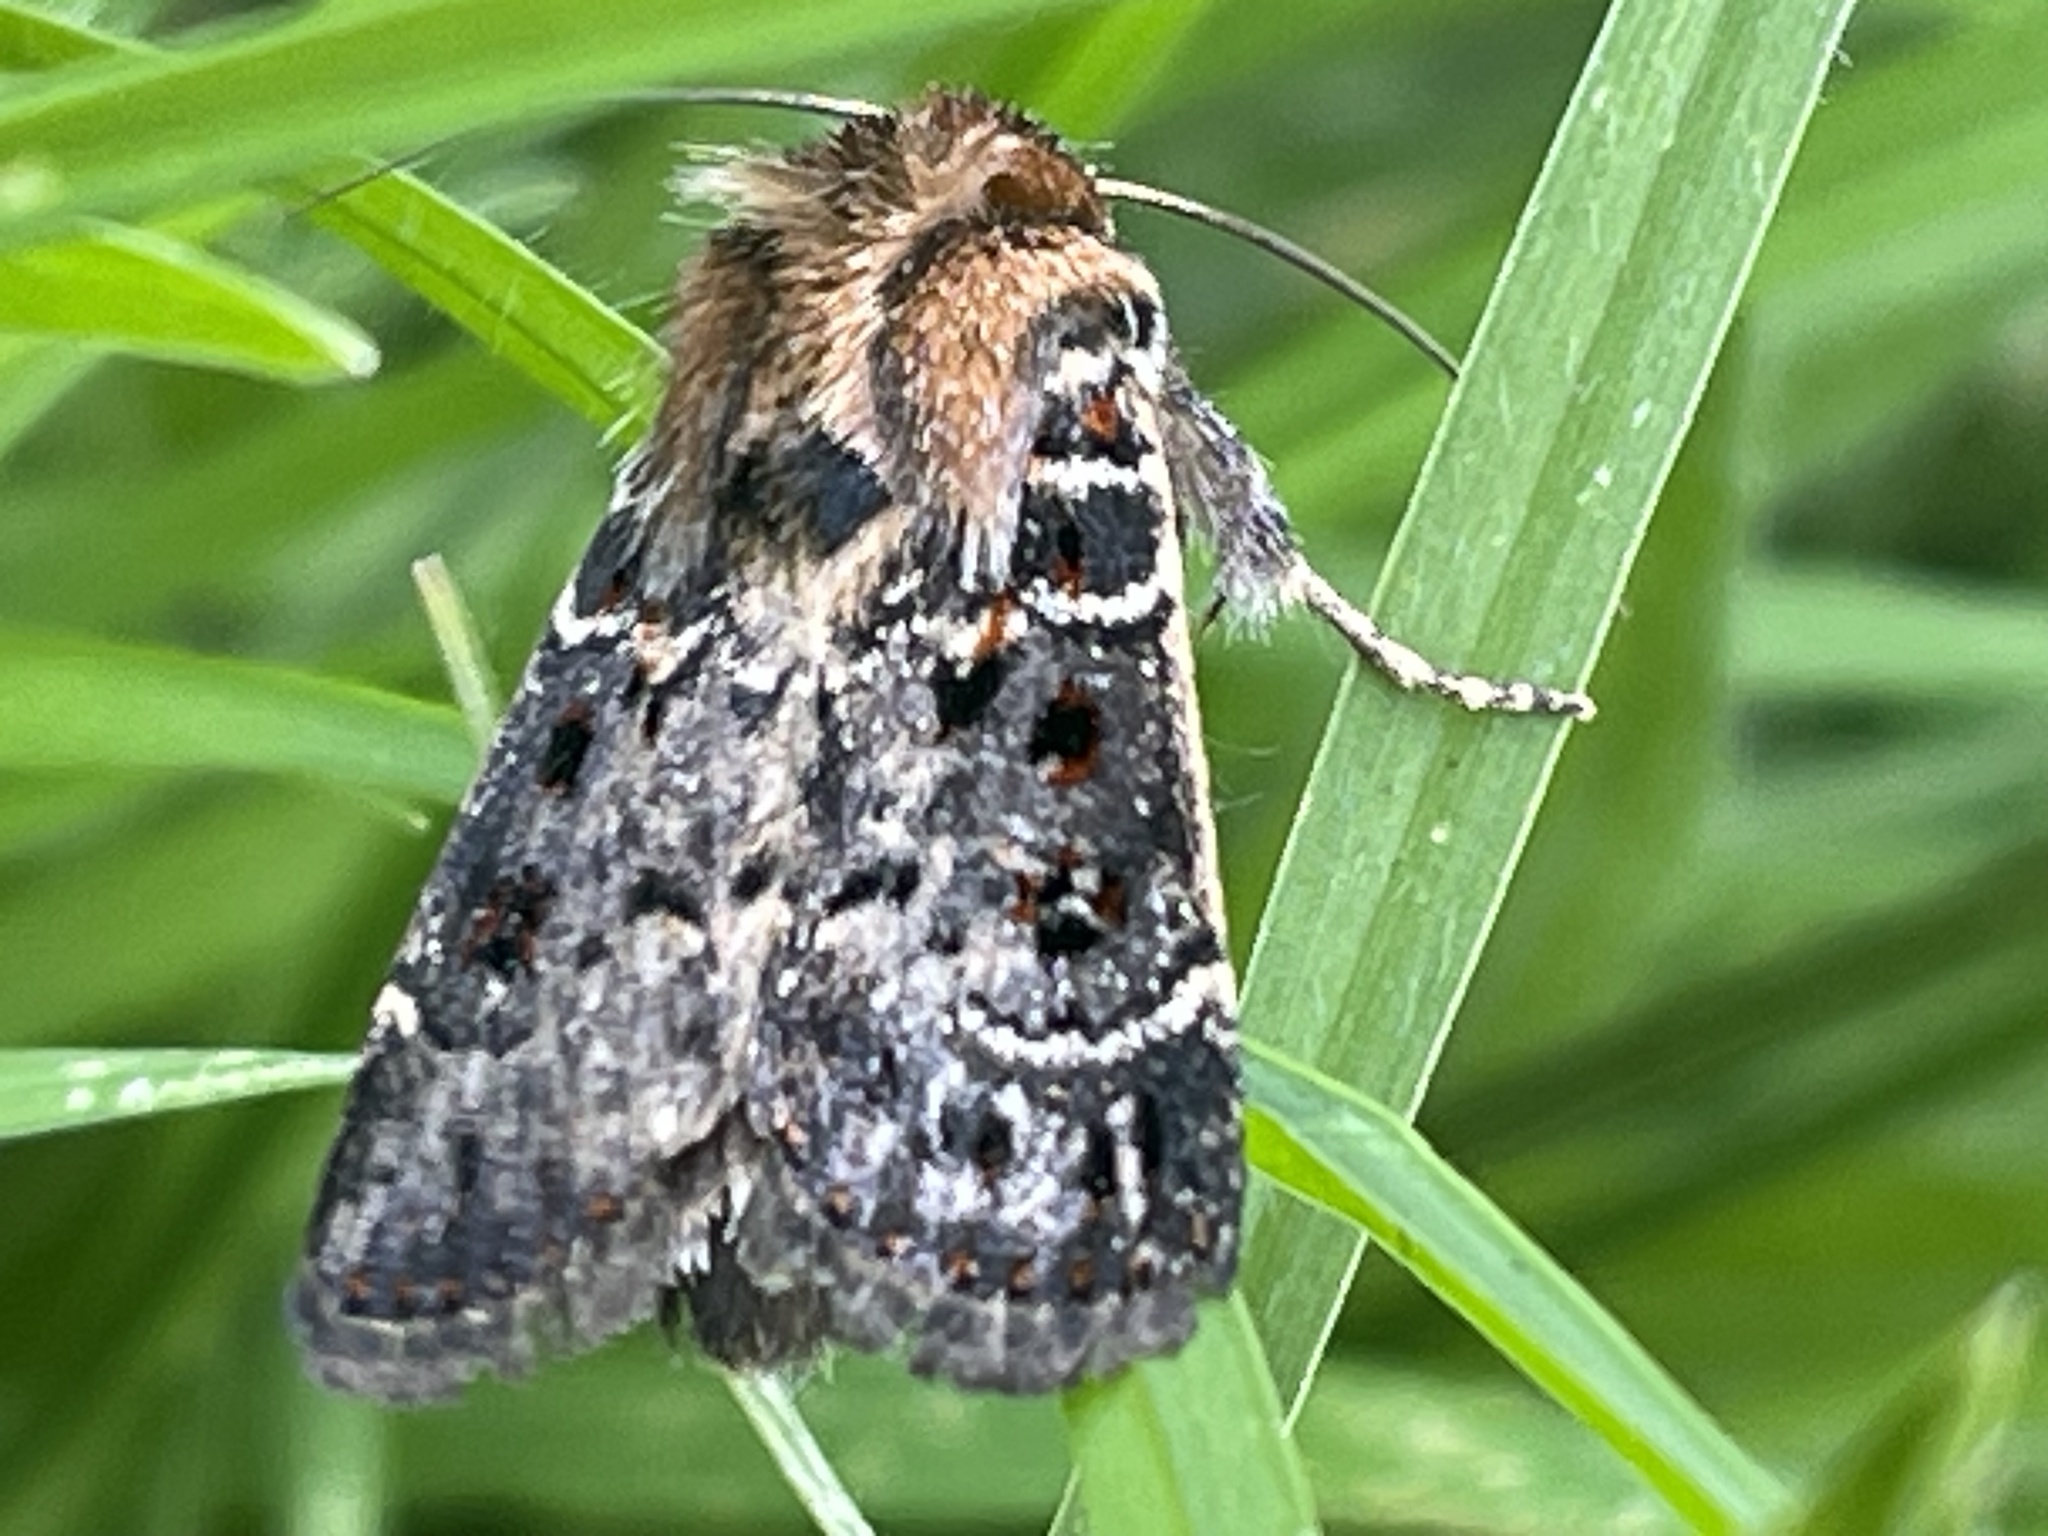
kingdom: Animalia
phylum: Arthropoda
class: Insecta
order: Lepidoptera
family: Noctuidae
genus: Proteuxoa
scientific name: Proteuxoa sanguinipuncta
